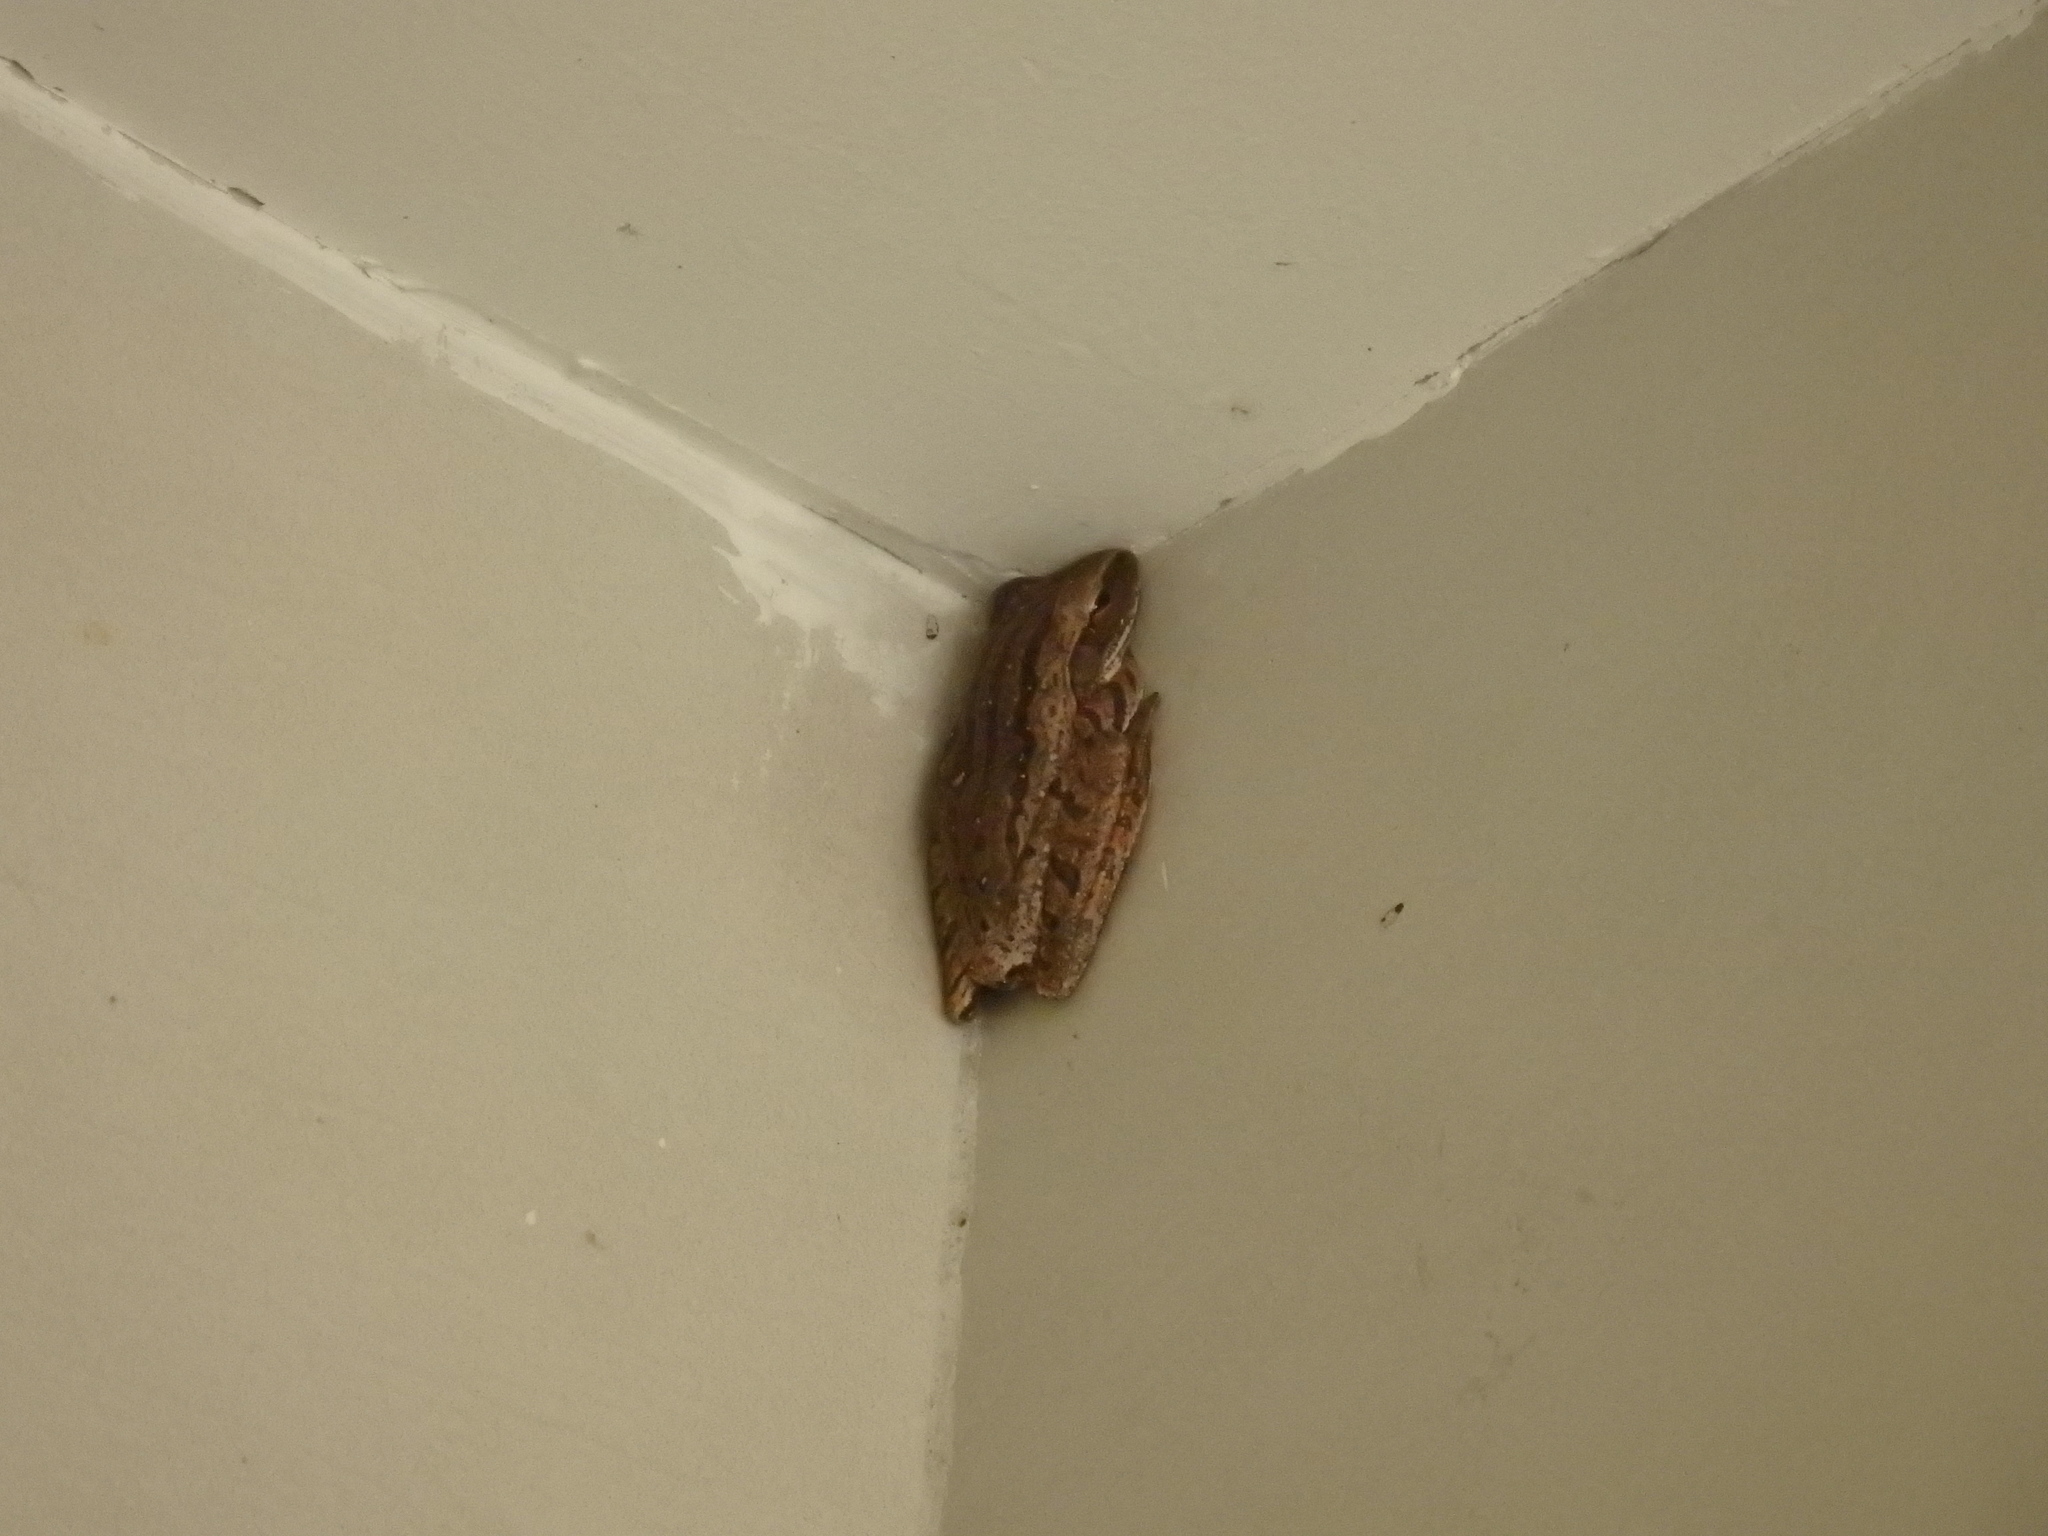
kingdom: Animalia
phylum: Chordata
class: Amphibia
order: Anura
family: Rhacophoridae
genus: Polypedates
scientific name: Polypedates leucomystax
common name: Common tree frog/four-lined tree frog
